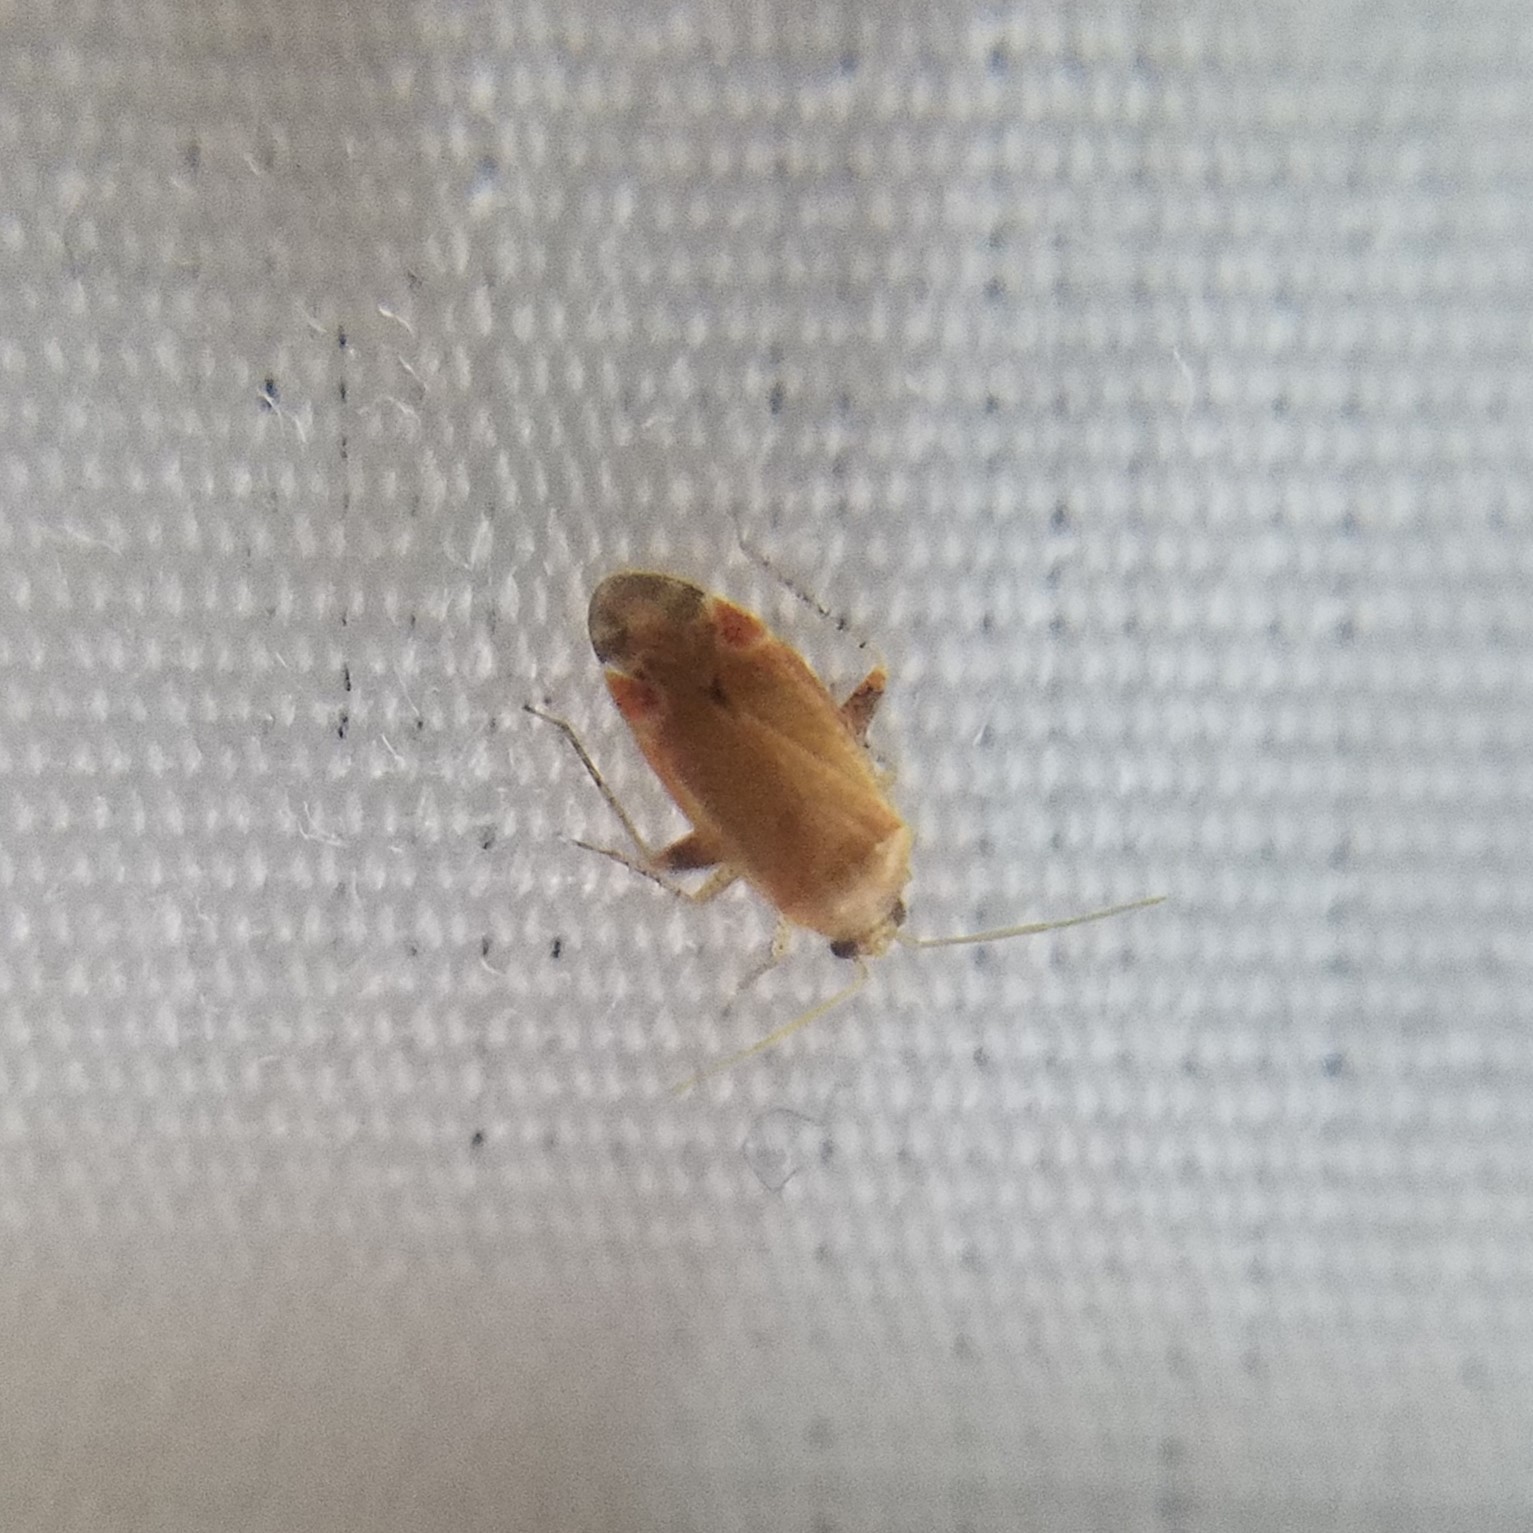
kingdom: Animalia
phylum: Arthropoda
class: Insecta
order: Hemiptera
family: Miridae
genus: Hamatophylus
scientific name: Hamatophylus guttulosus
